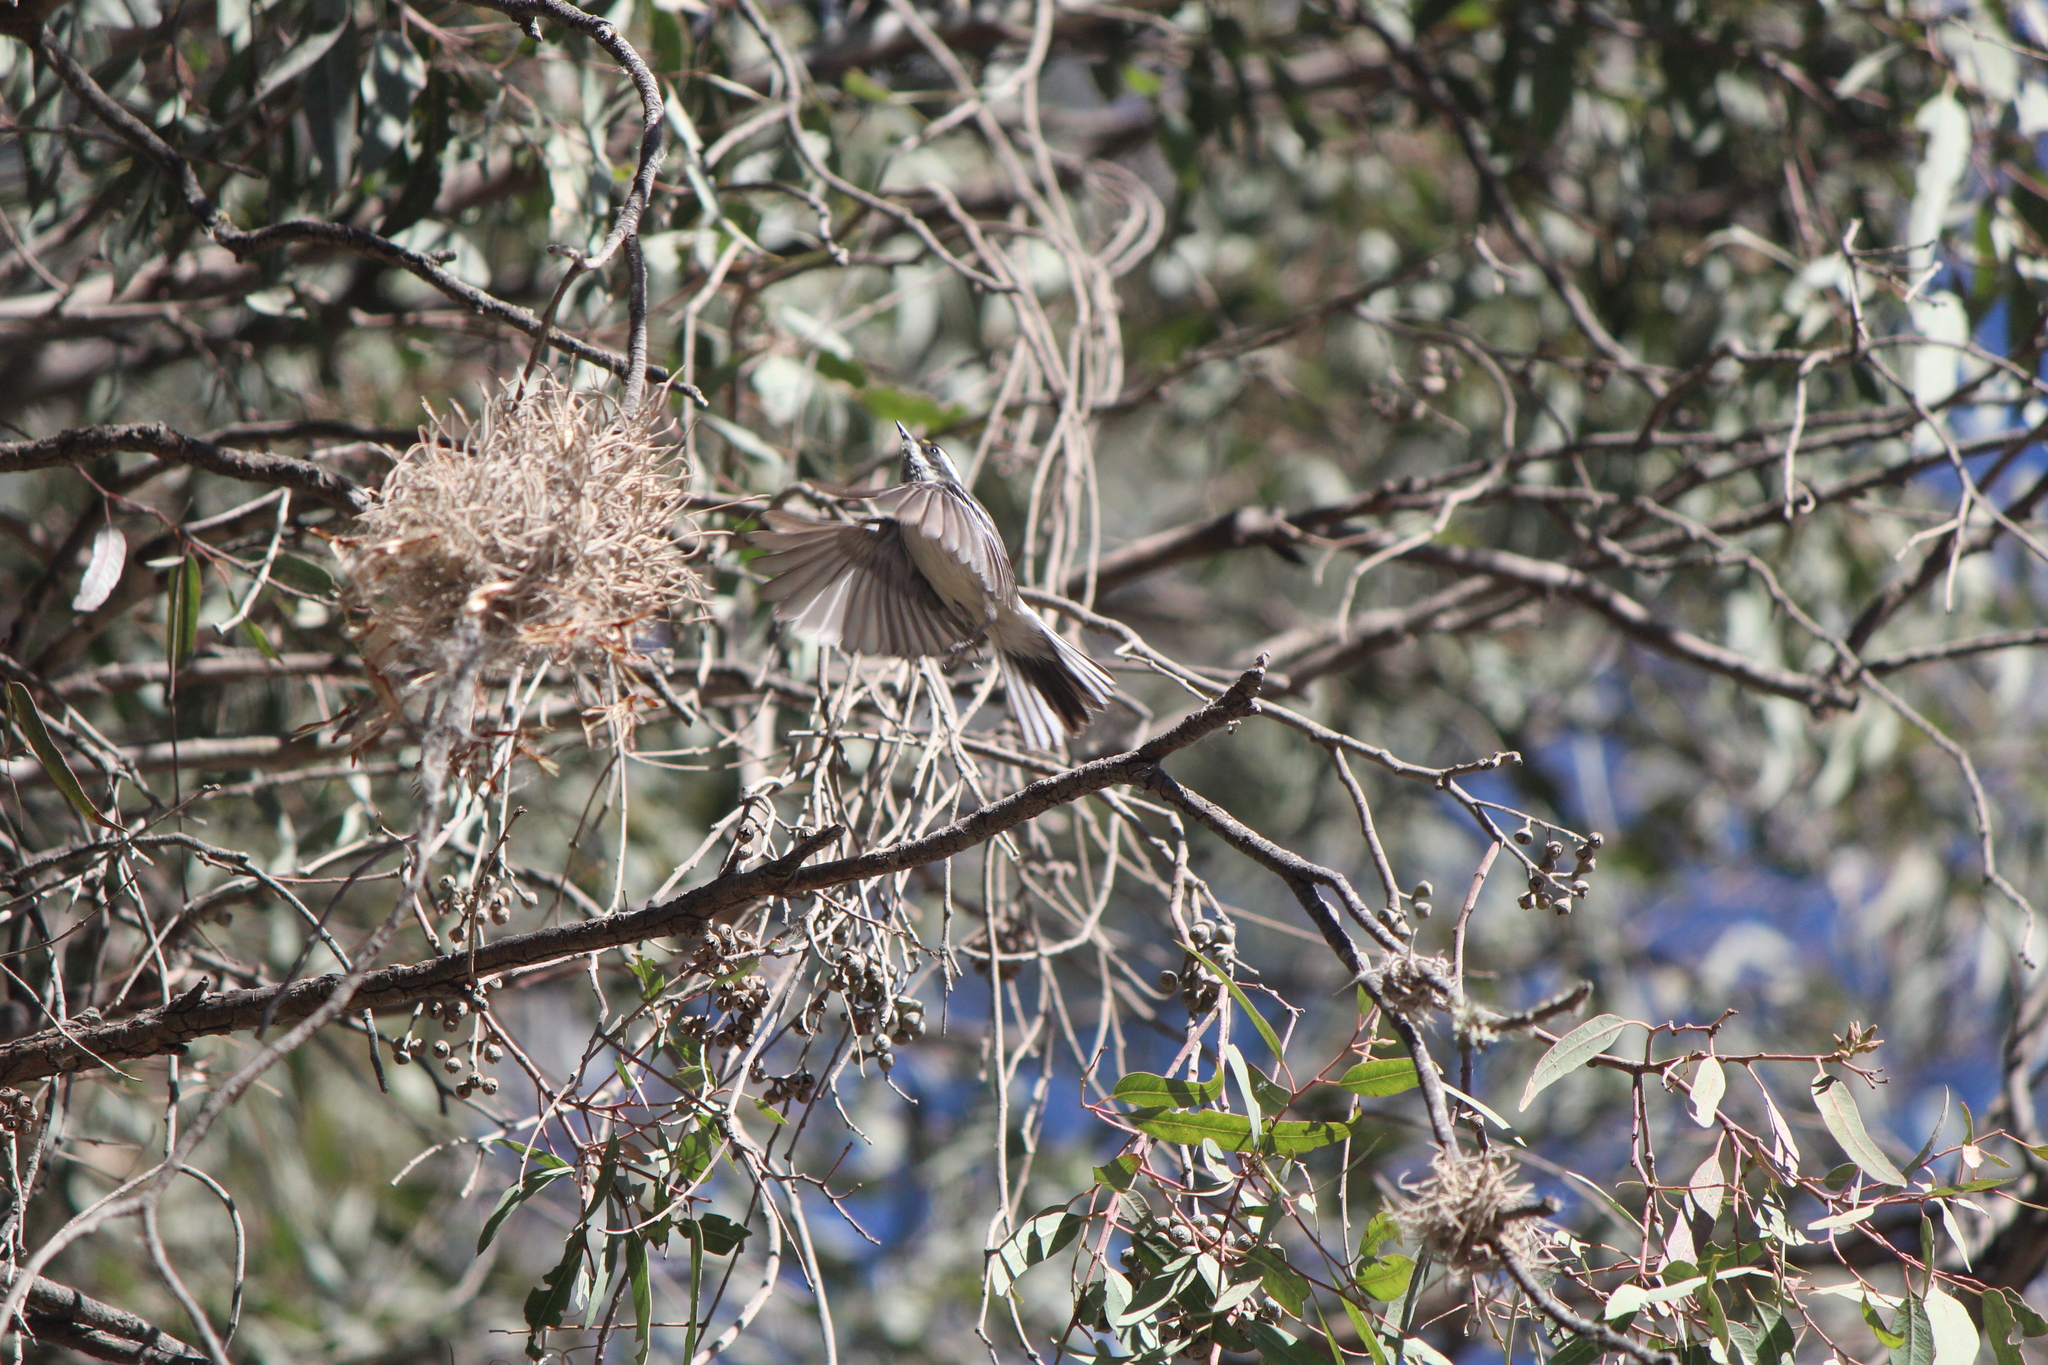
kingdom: Animalia
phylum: Chordata
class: Aves
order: Passeriformes
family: Parulidae
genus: Setophaga
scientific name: Setophaga nigrescens
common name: Black-throated gray warbler
